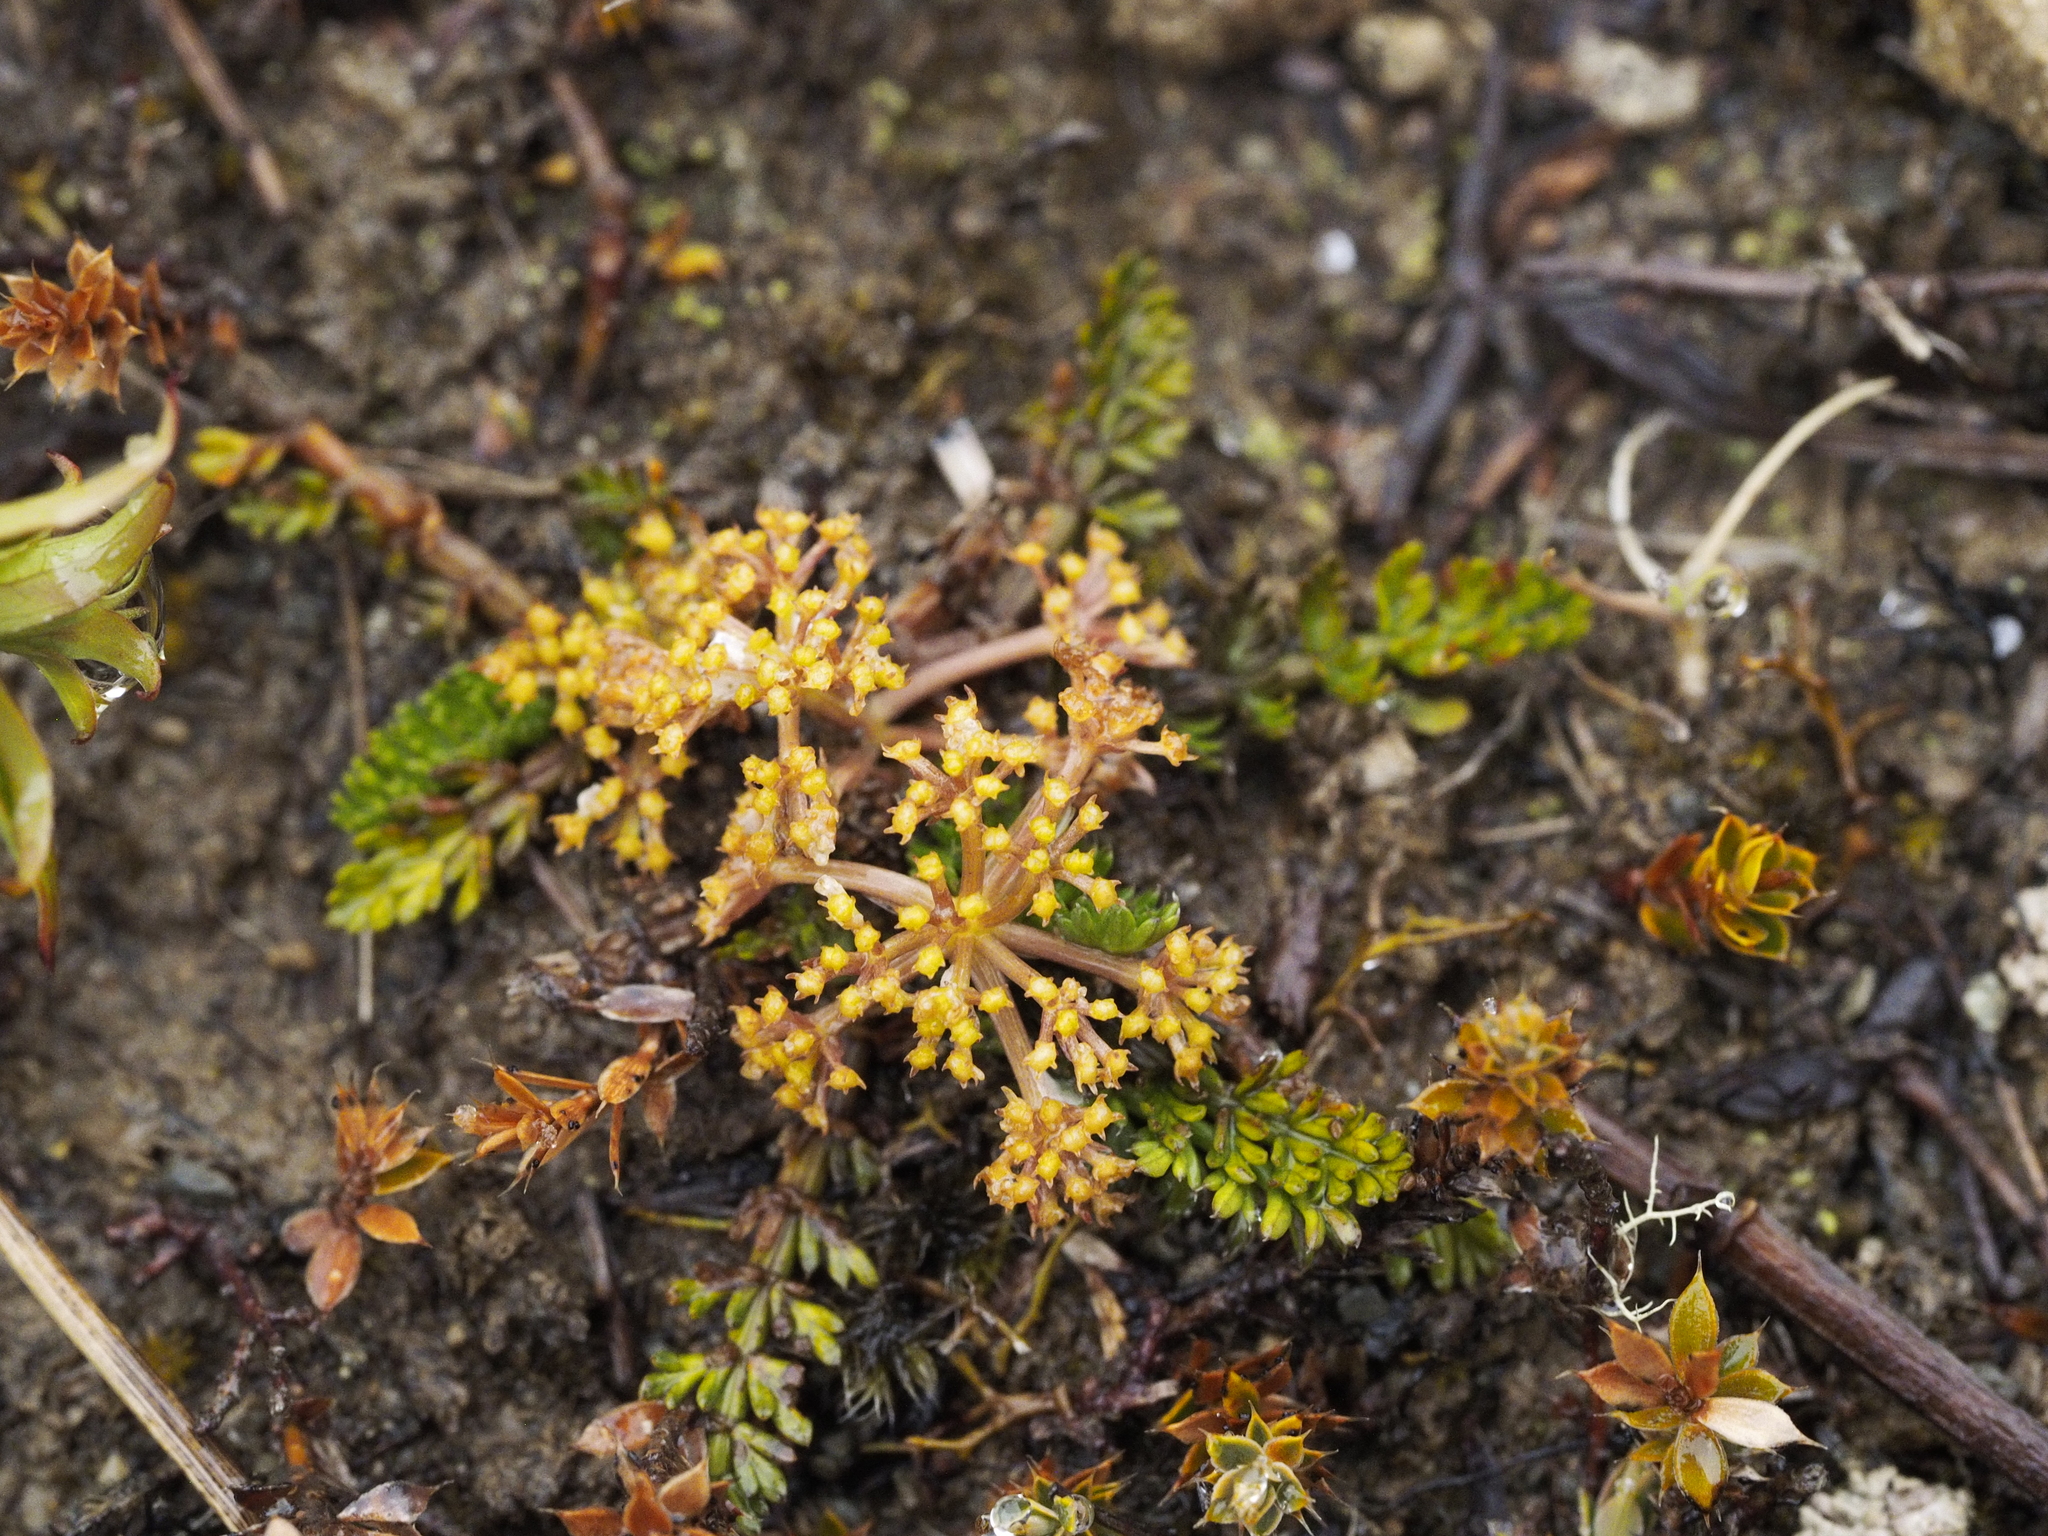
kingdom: Plantae
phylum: Tracheophyta
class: Magnoliopsida
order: Apiales
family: Apiaceae
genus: Anisotome
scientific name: Anisotome flexuosa
